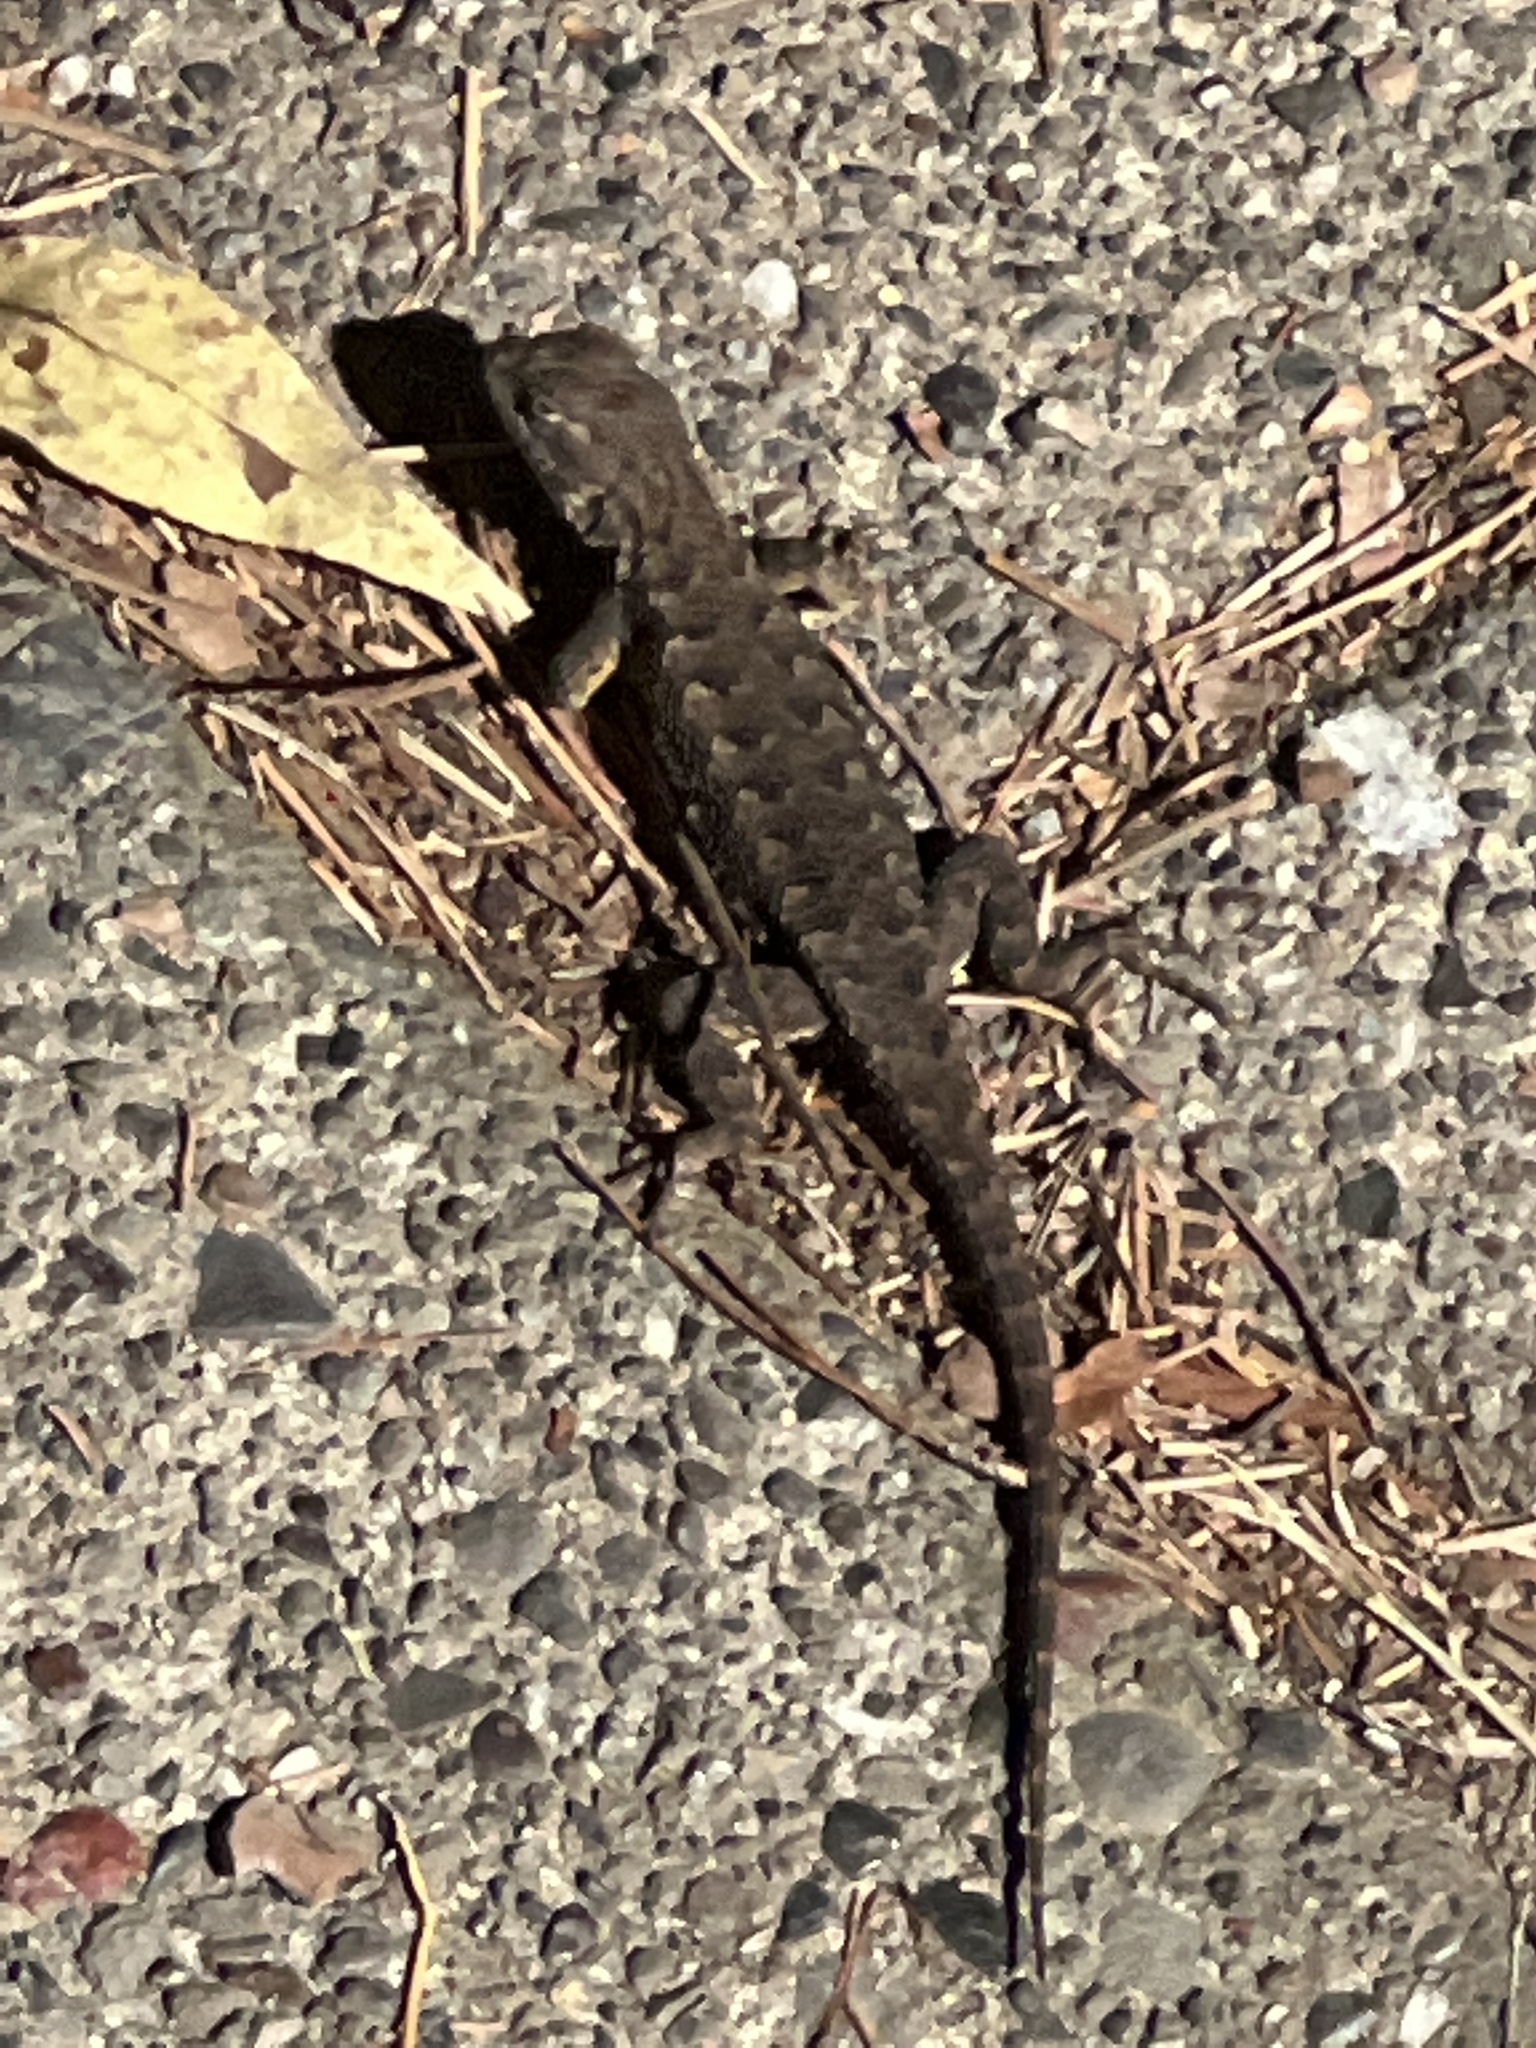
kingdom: Animalia
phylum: Chordata
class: Squamata
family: Phrynosomatidae
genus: Sceloporus
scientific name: Sceloporus occidentalis
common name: Western fence lizard
